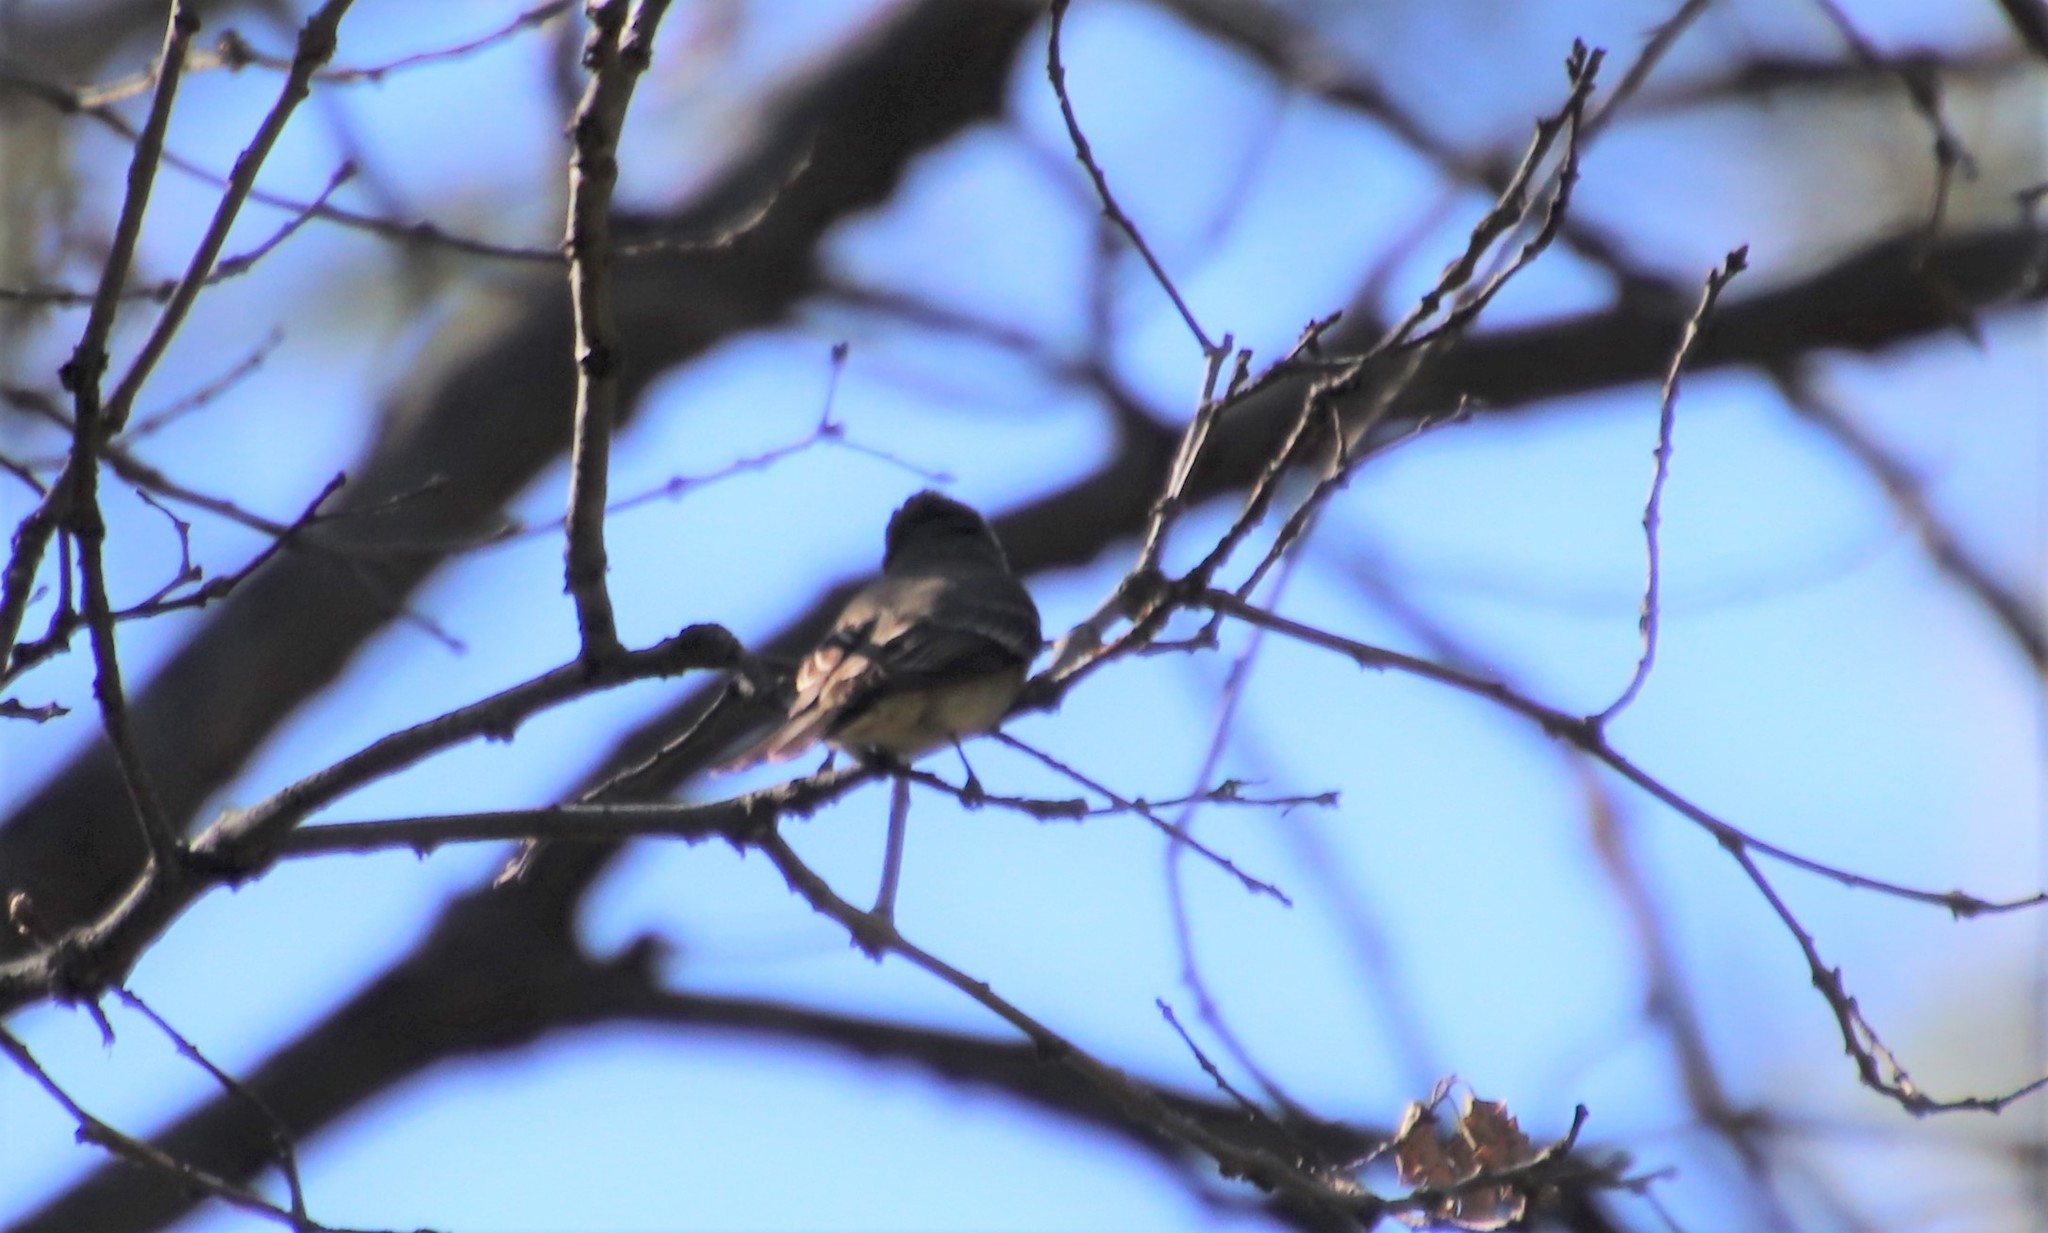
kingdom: Animalia
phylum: Chordata
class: Aves
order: Passeriformes
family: Tyrannidae
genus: Contopus
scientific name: Contopus sordidulus
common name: Western wood-pewee
